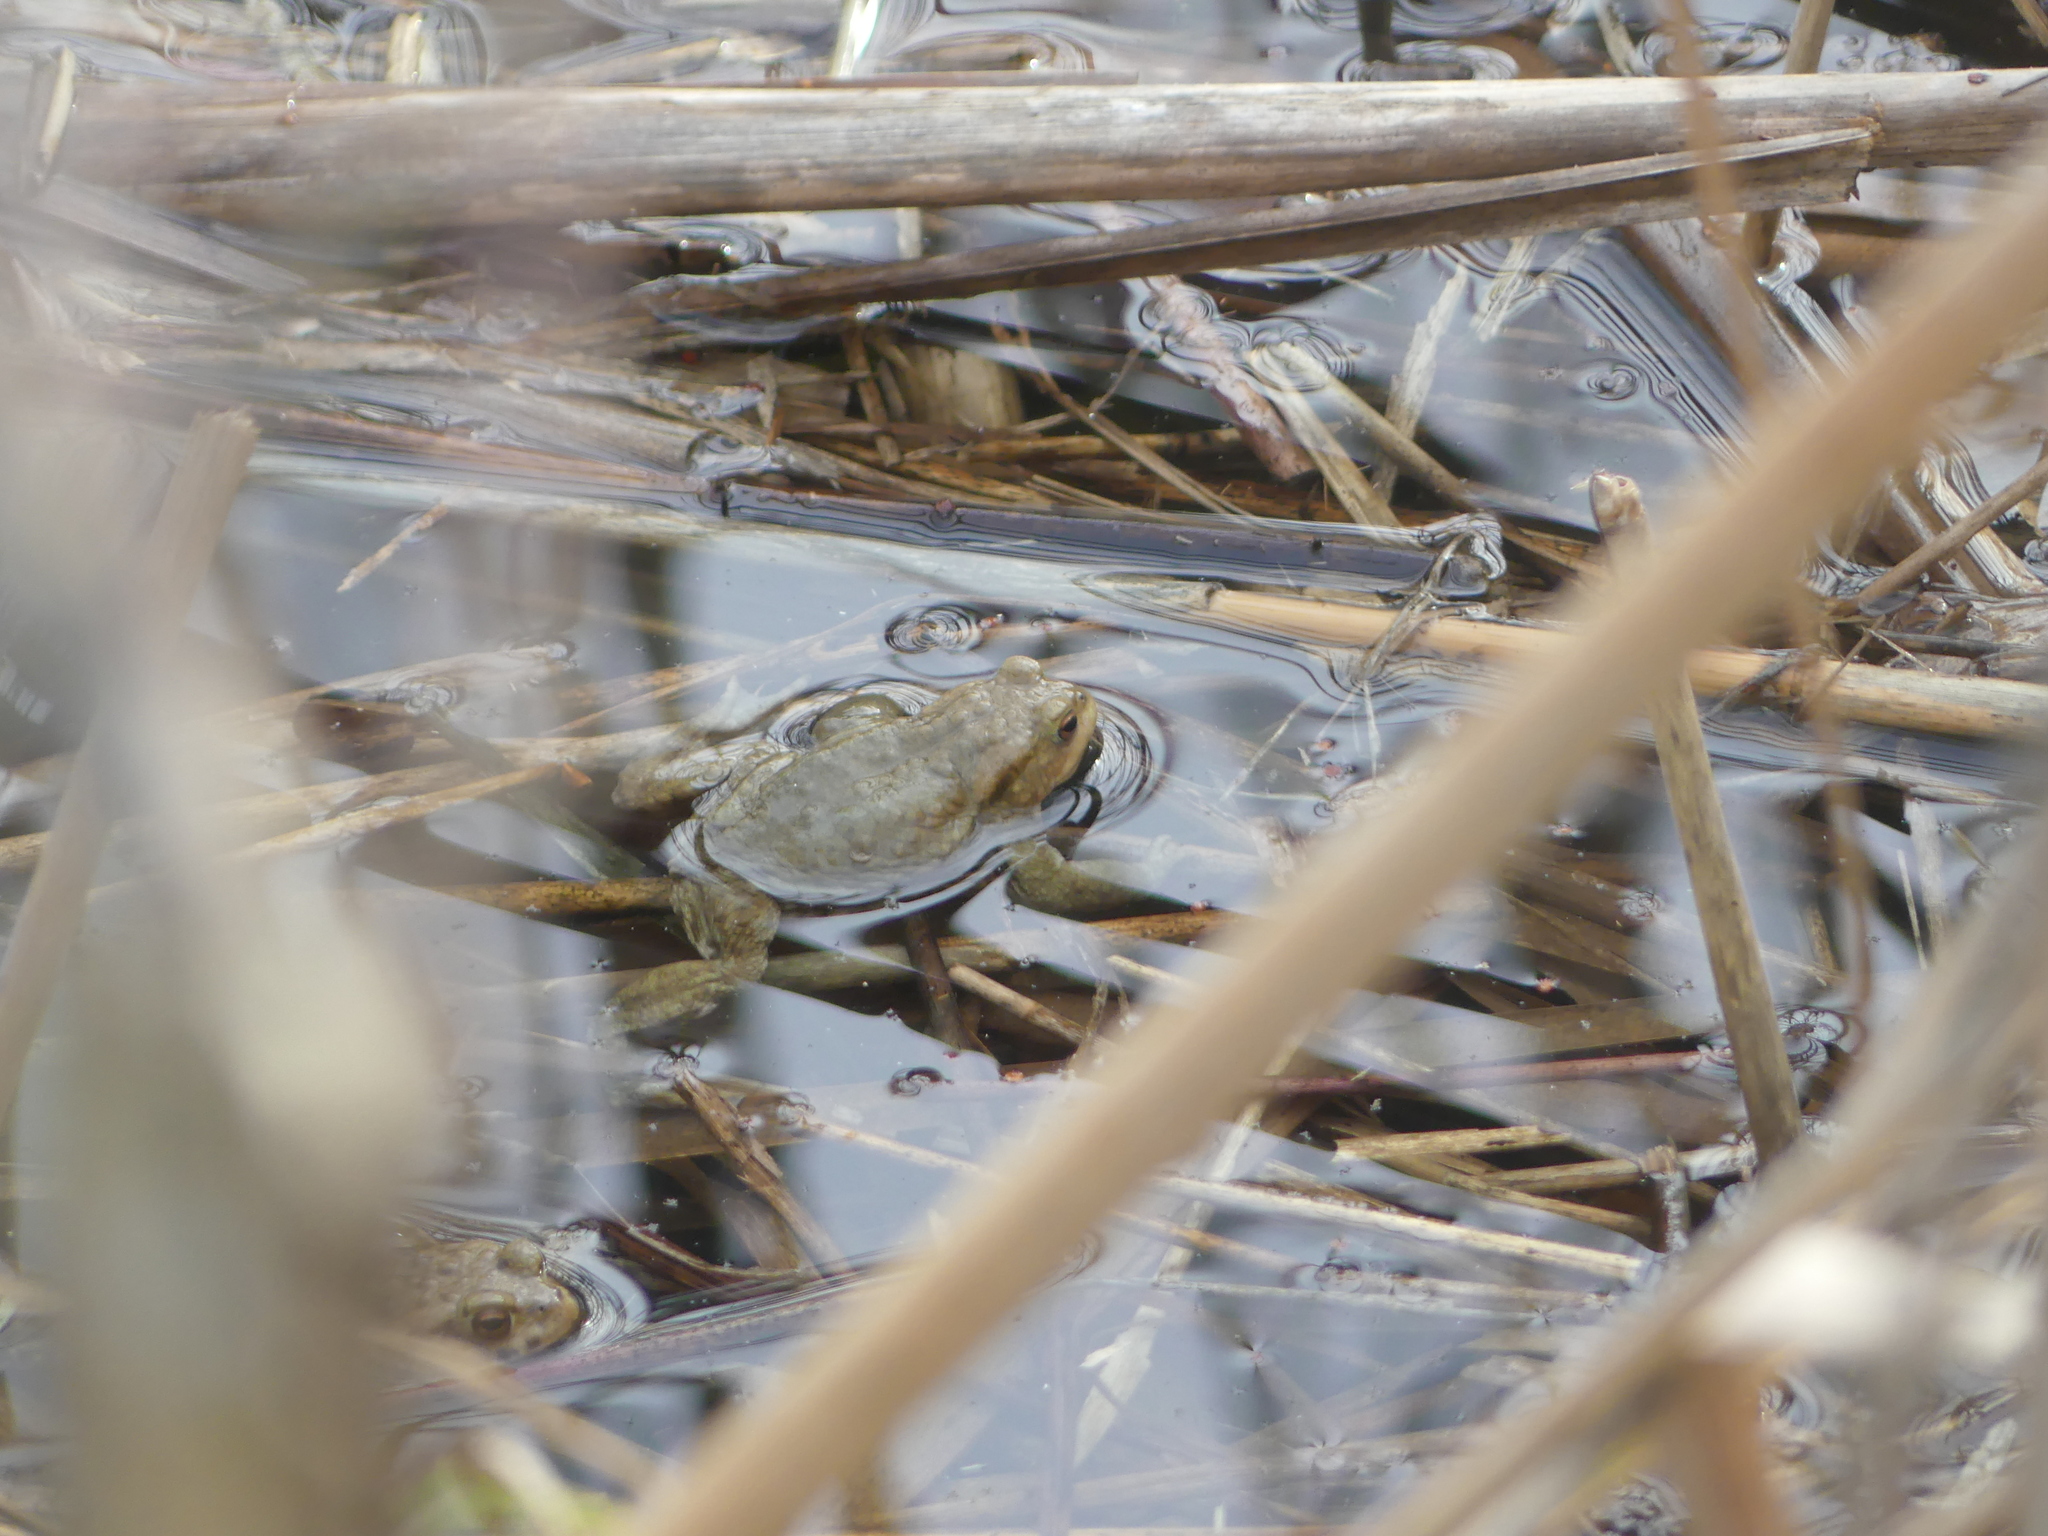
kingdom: Animalia
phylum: Chordata
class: Amphibia
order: Anura
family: Bufonidae
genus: Bufo
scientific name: Bufo bufo
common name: Common toad
